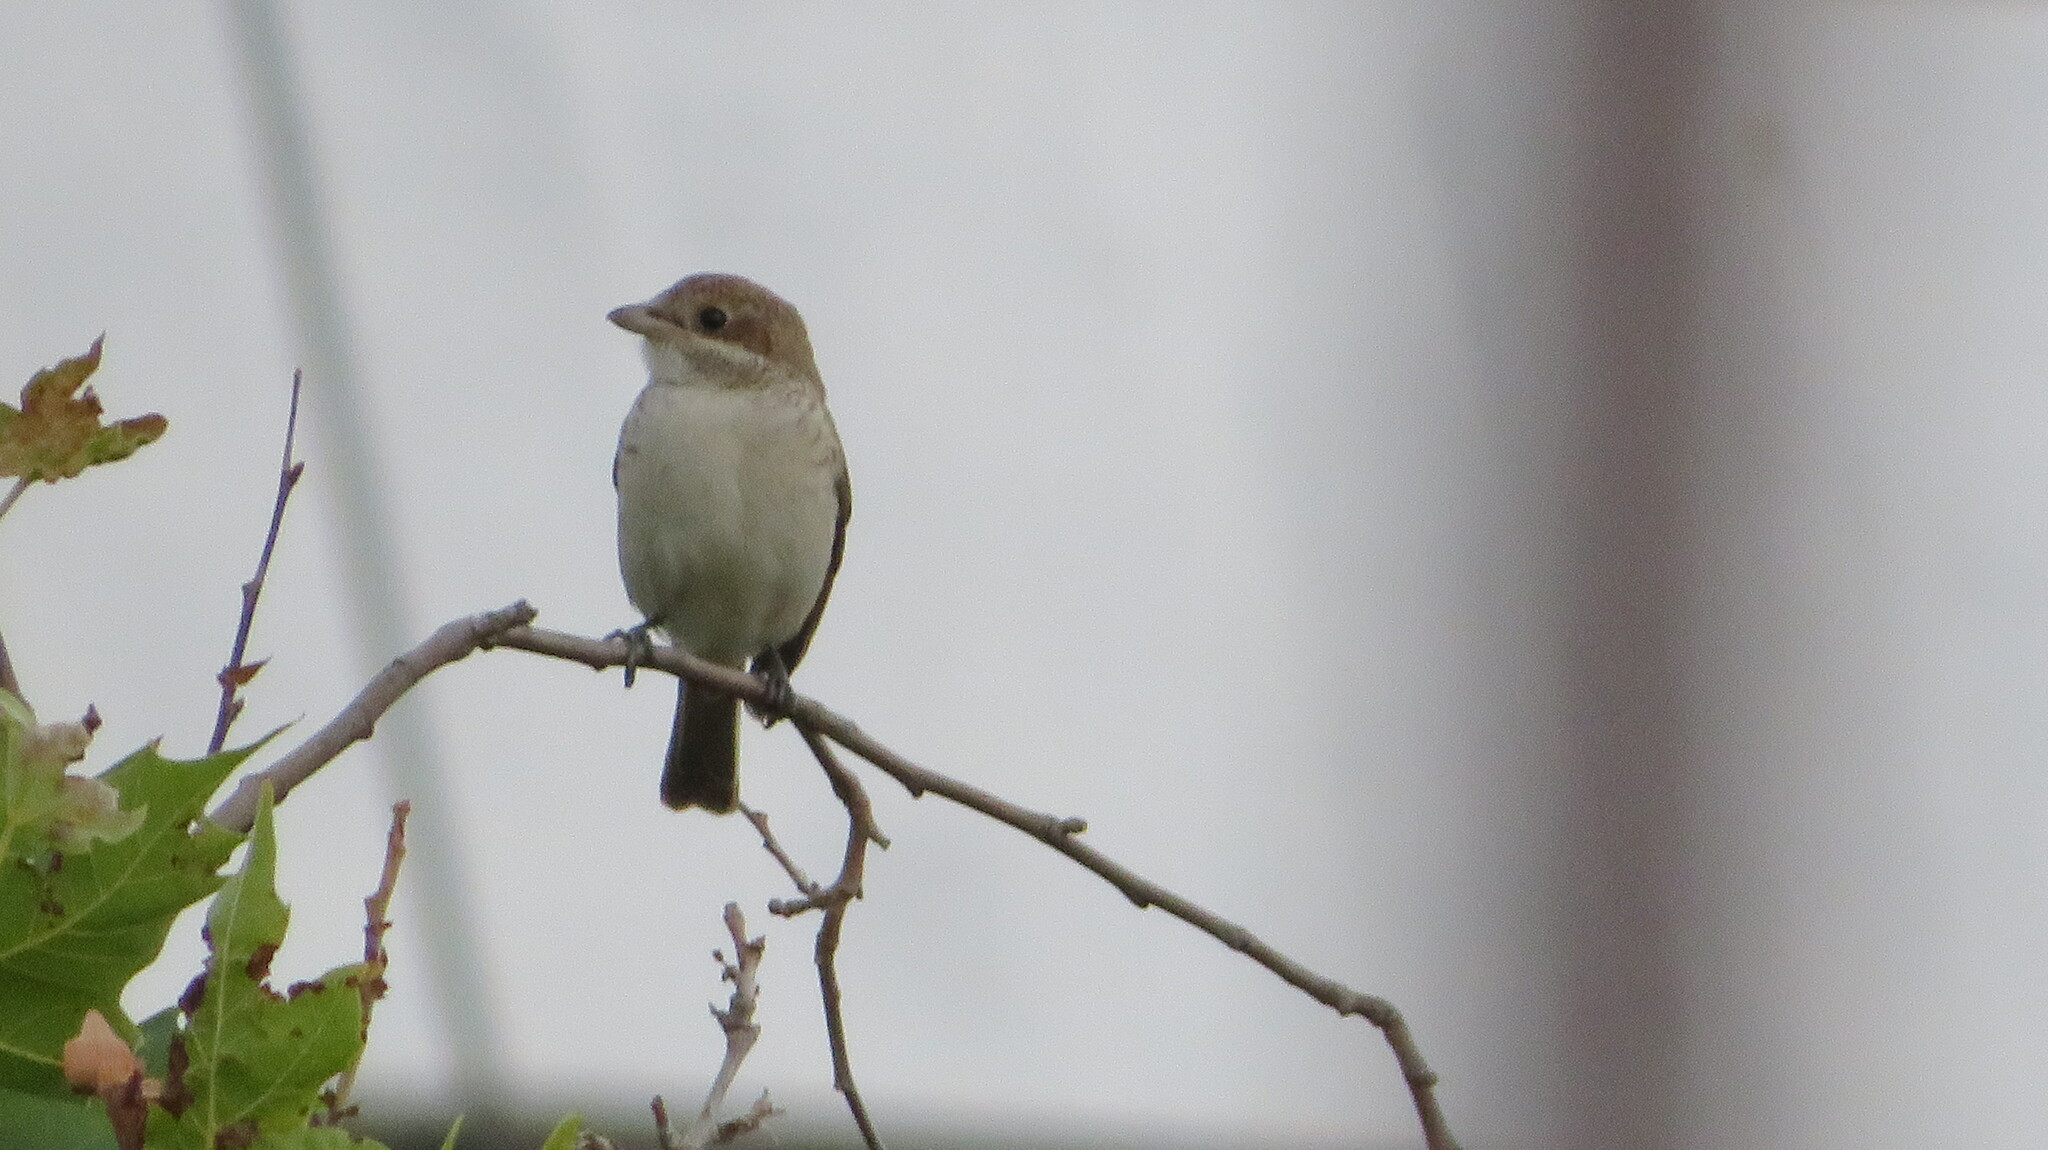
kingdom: Animalia
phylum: Chordata
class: Aves
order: Passeriformes
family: Laniidae
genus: Lanius
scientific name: Lanius collurio
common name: Red-backed shrike
